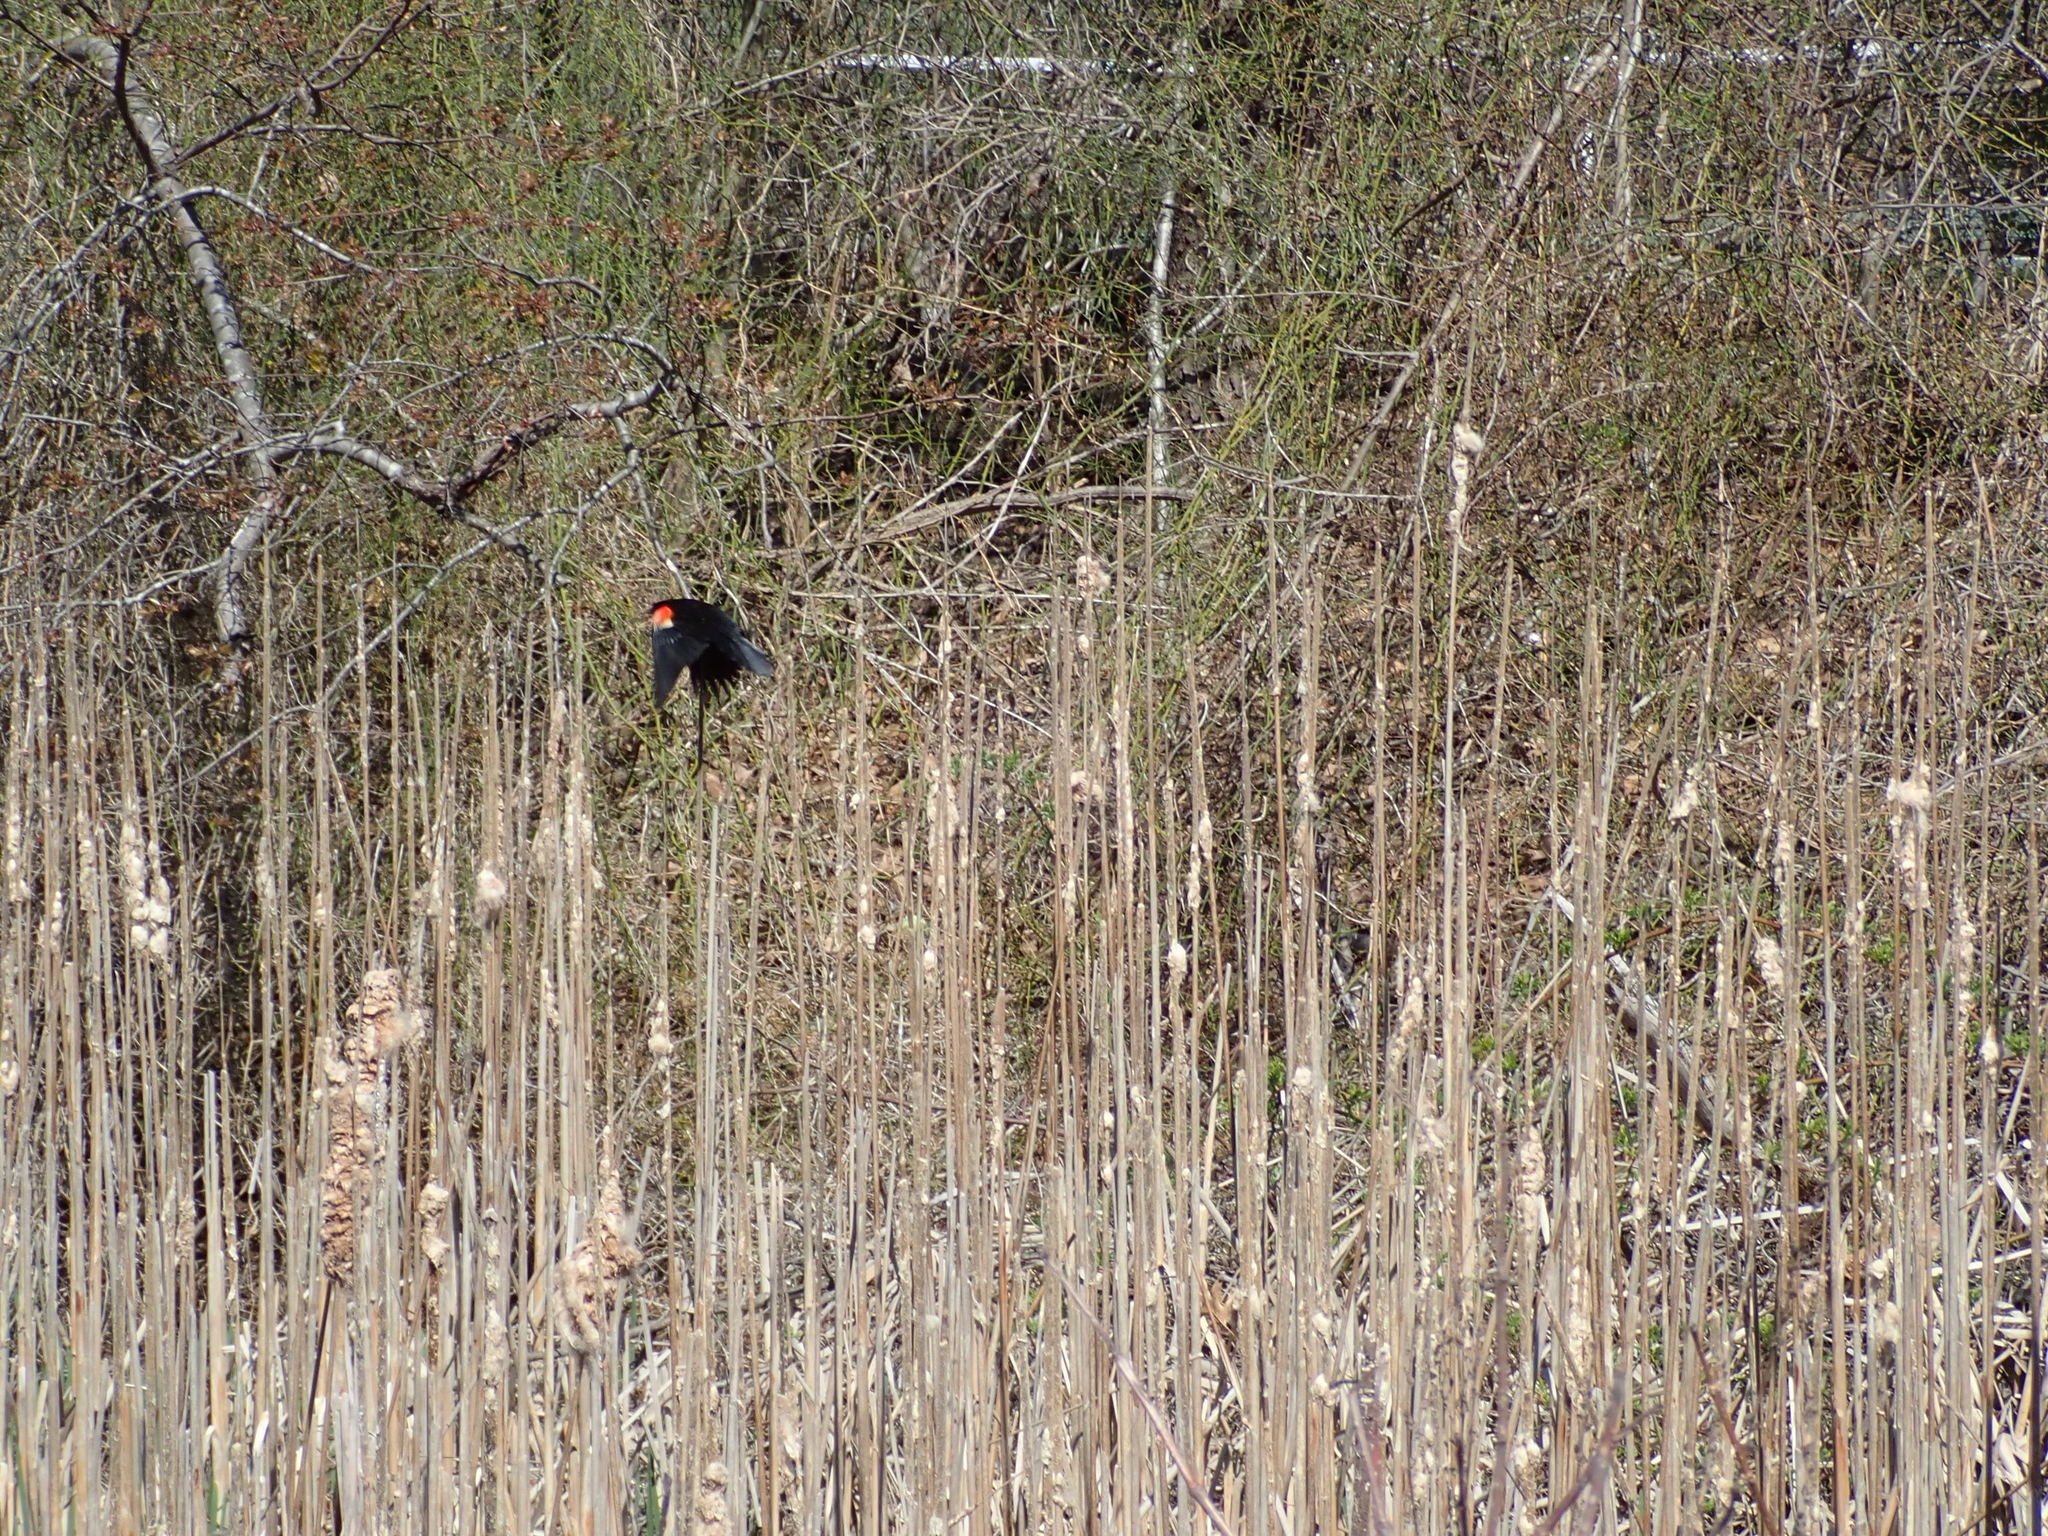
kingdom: Animalia
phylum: Chordata
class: Aves
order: Passeriformes
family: Icteridae
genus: Agelaius
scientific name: Agelaius phoeniceus
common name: Red-winged blackbird
